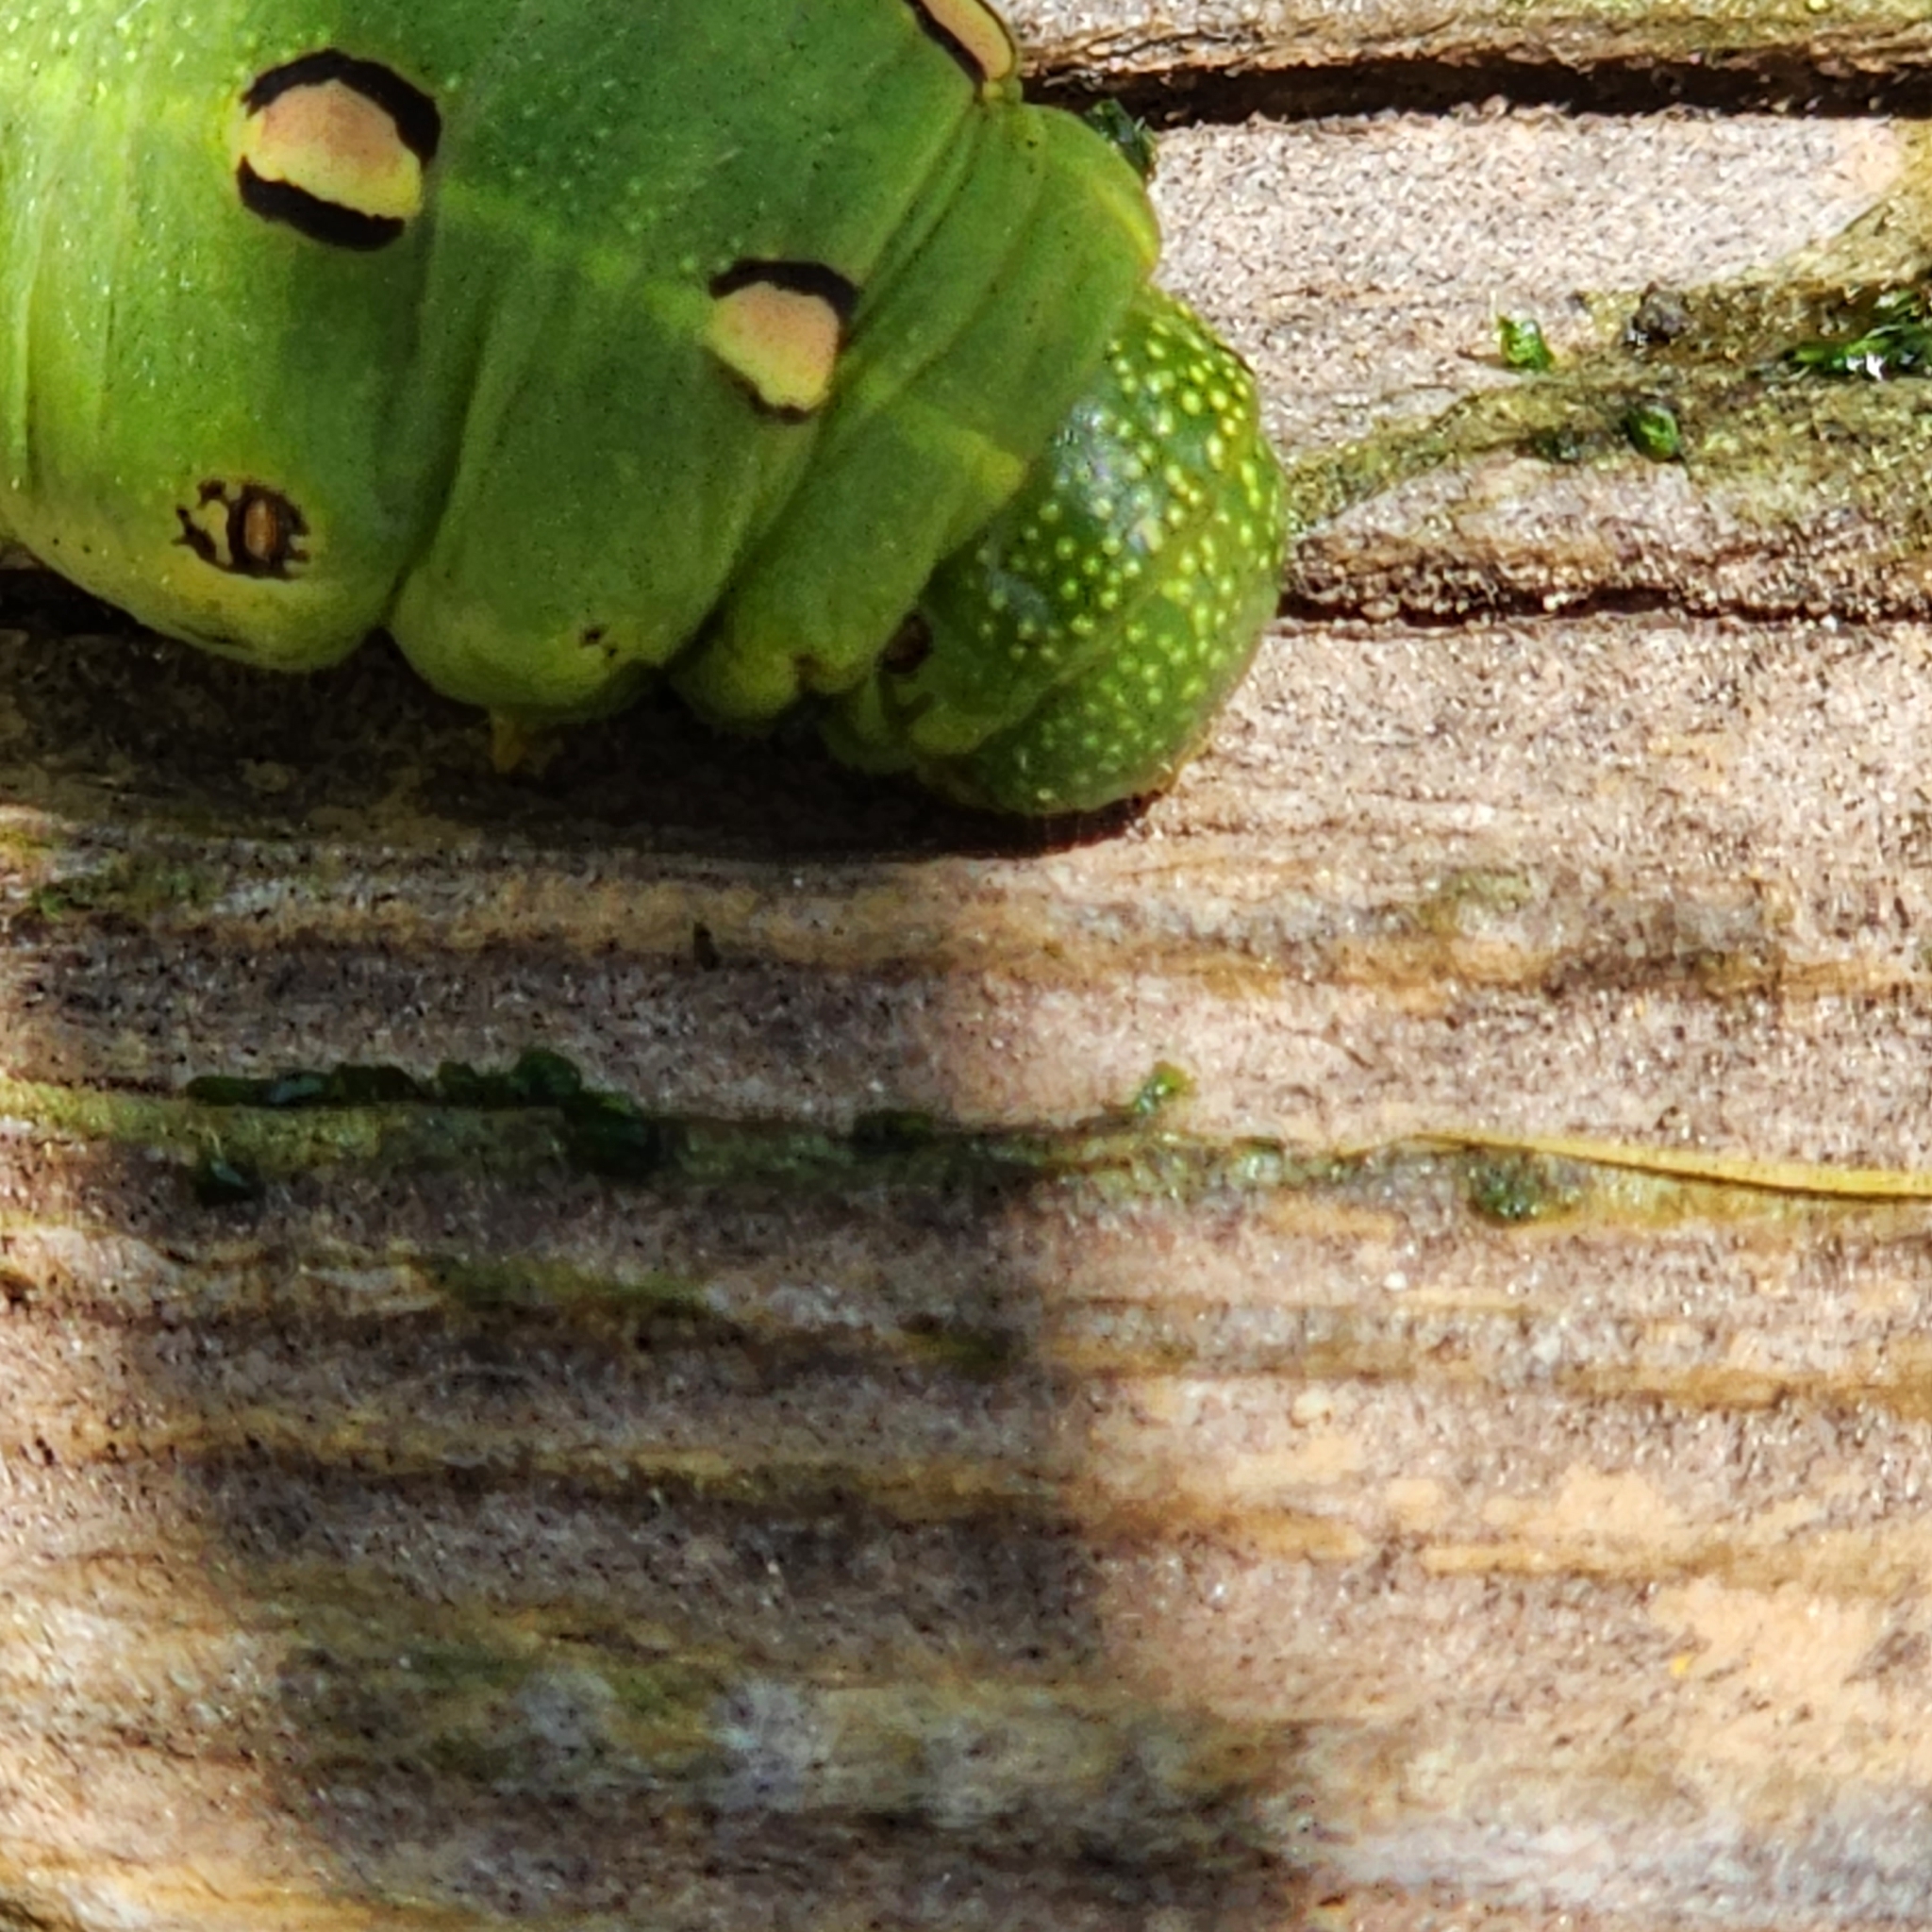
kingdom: Animalia
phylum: Arthropoda
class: Insecta
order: Lepidoptera
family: Sphingidae
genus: Hyles
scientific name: Hyles lineata
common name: White-lined sphinx
